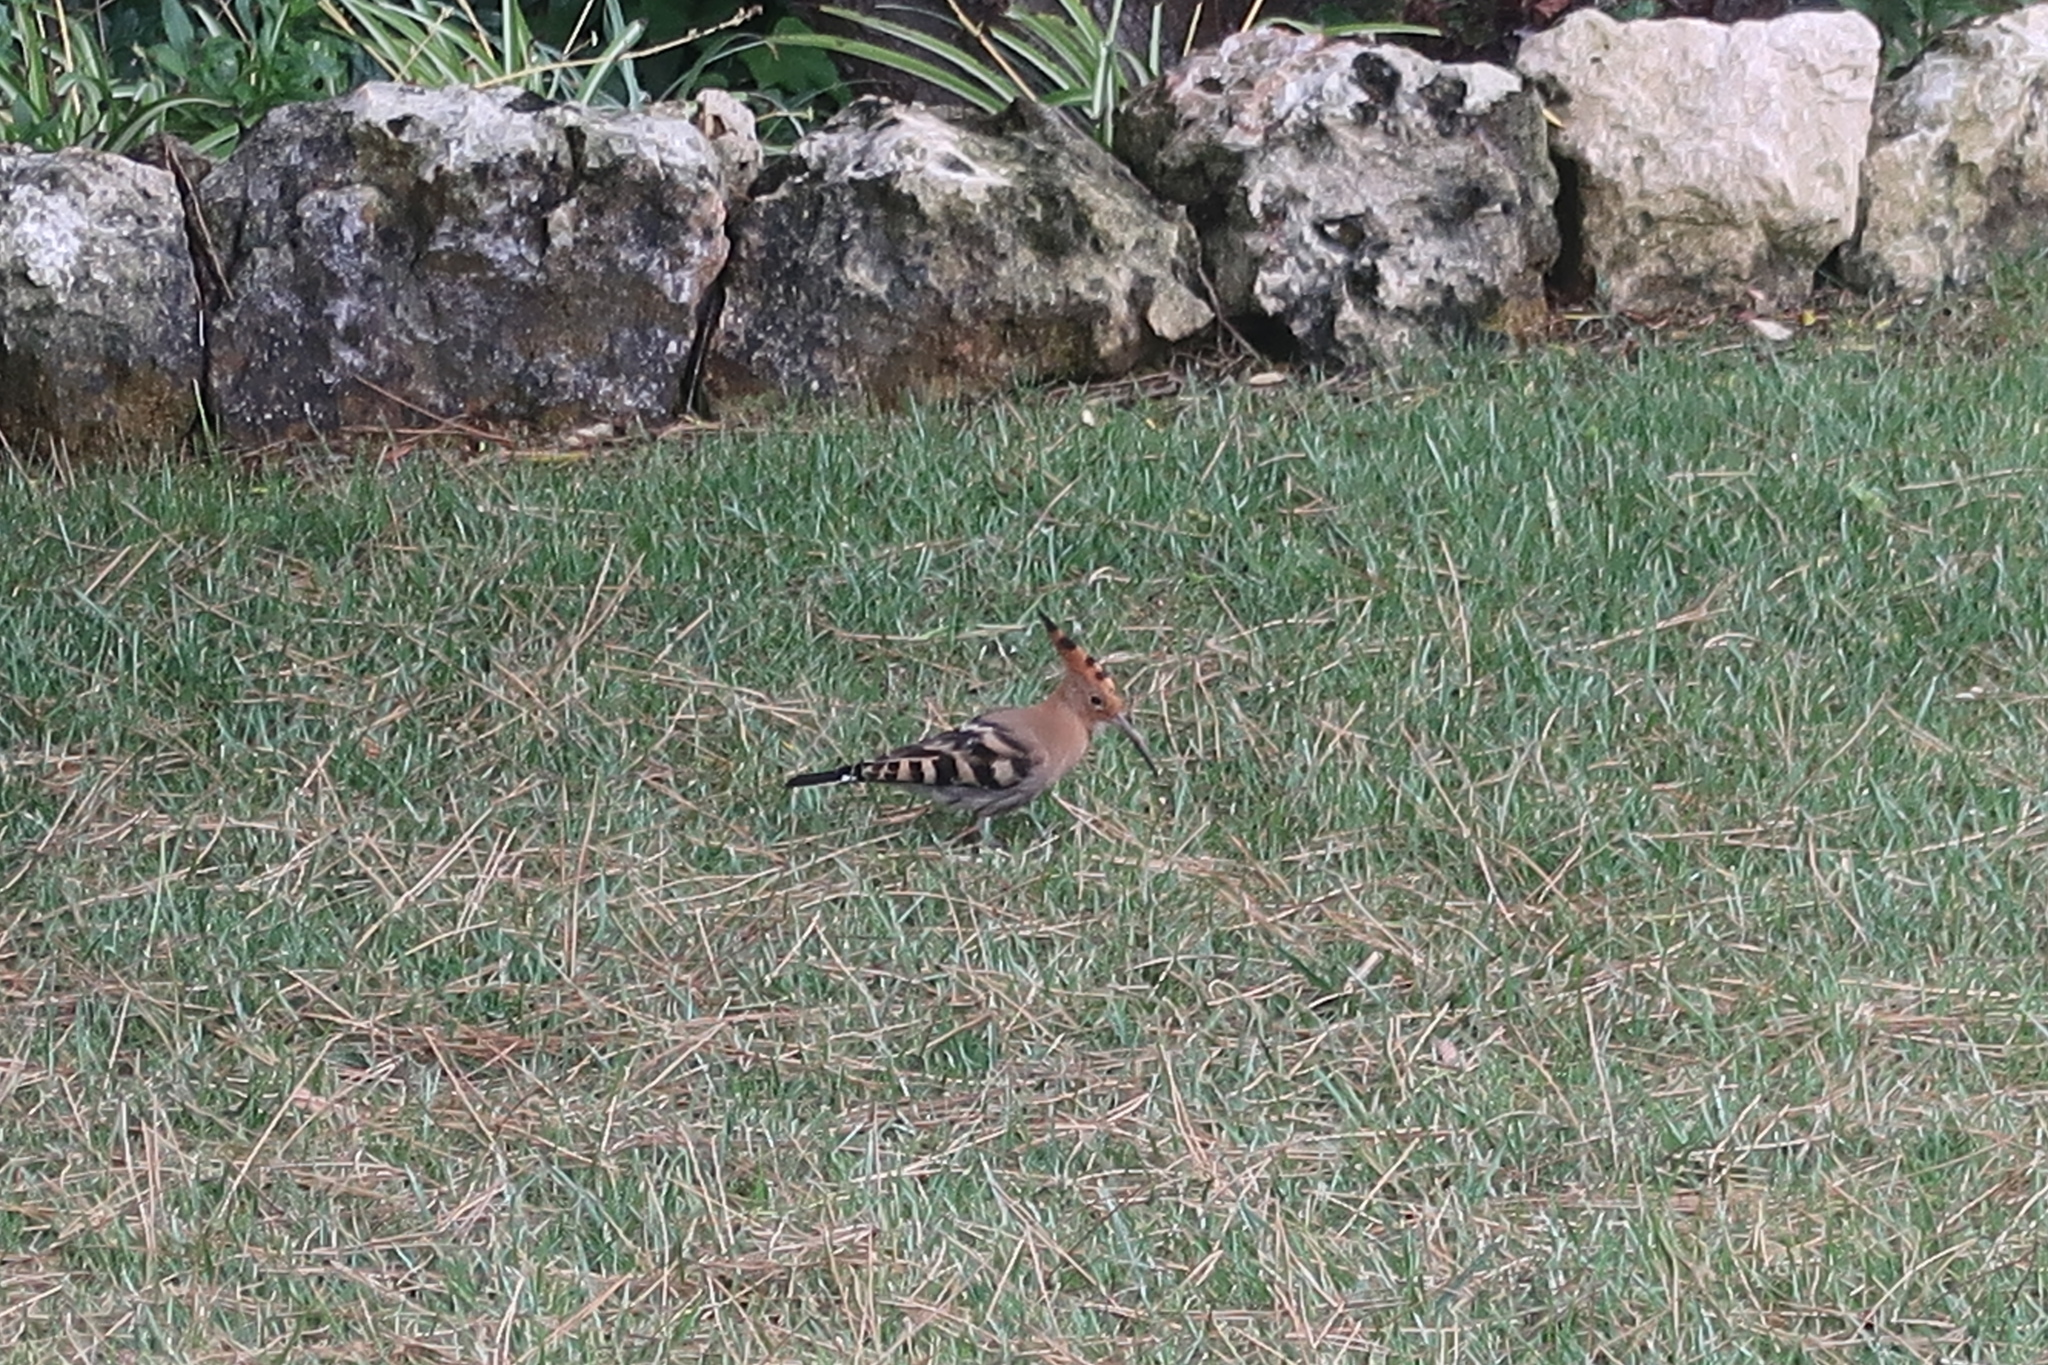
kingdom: Animalia
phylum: Chordata
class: Aves
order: Bucerotiformes
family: Upupidae
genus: Upupa
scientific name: Upupa epops
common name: Eurasian hoopoe
